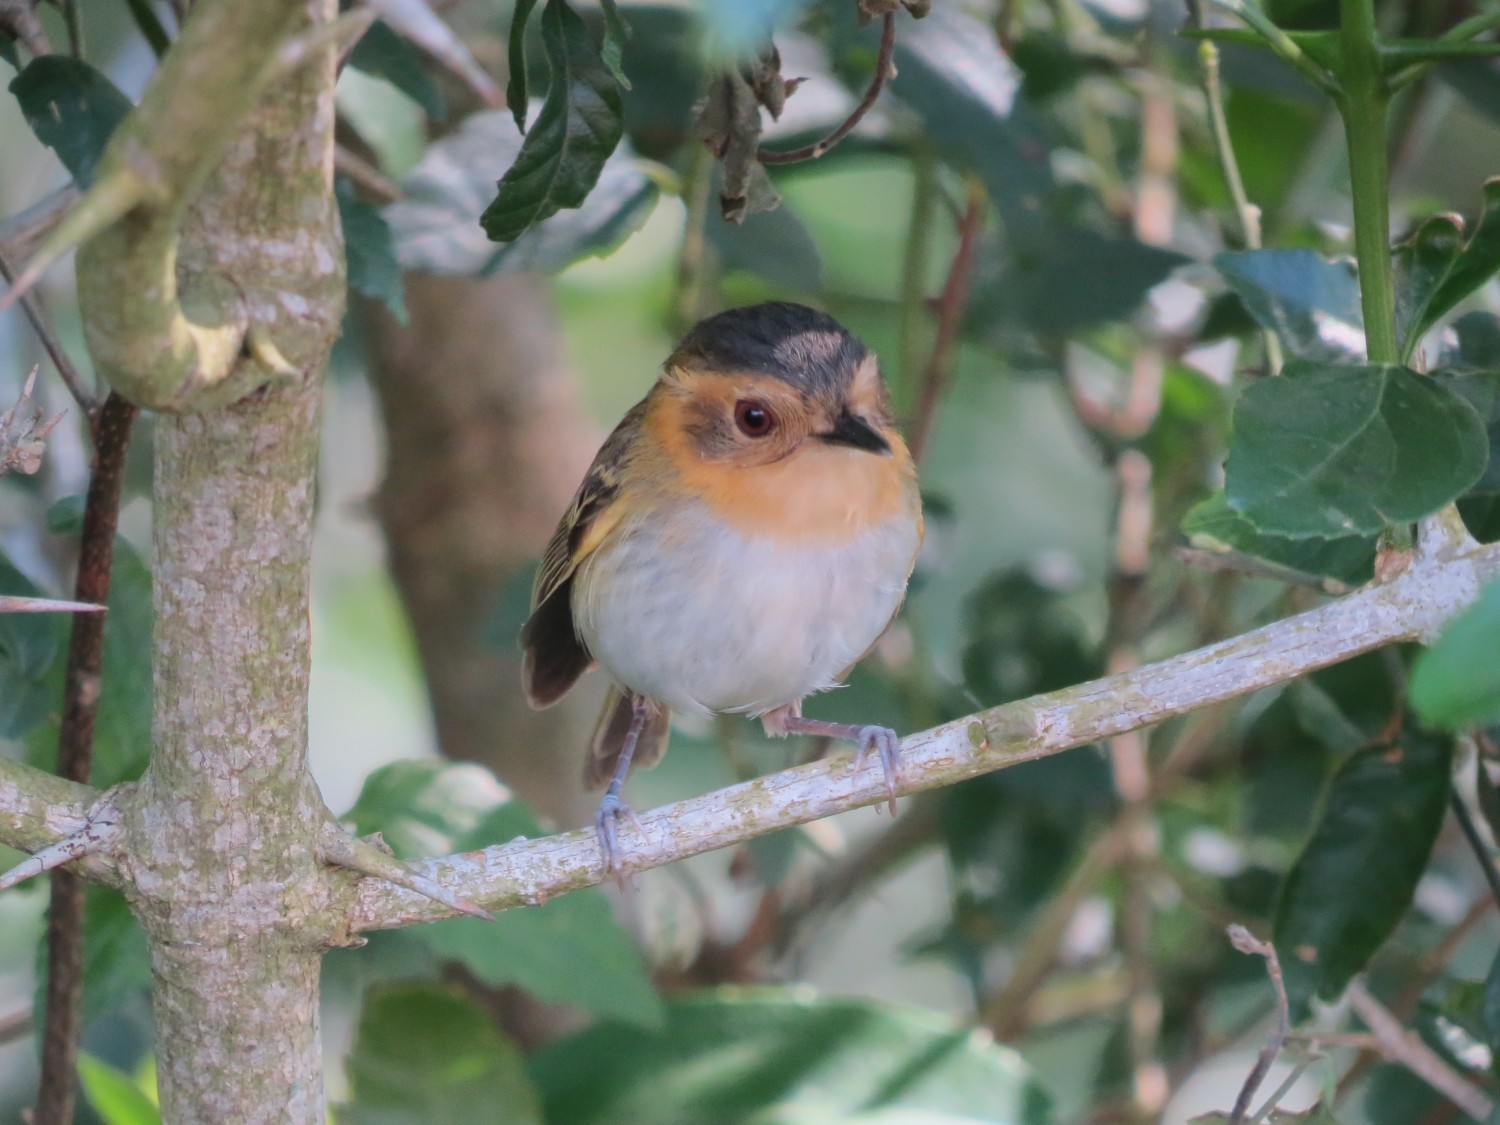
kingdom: Animalia
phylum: Chordata
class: Aves
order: Passeriformes
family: Tyrannidae
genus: Poecilotriccus
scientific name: Poecilotriccus plumbeiceps
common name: Ochre-faced tody-flycatcher
